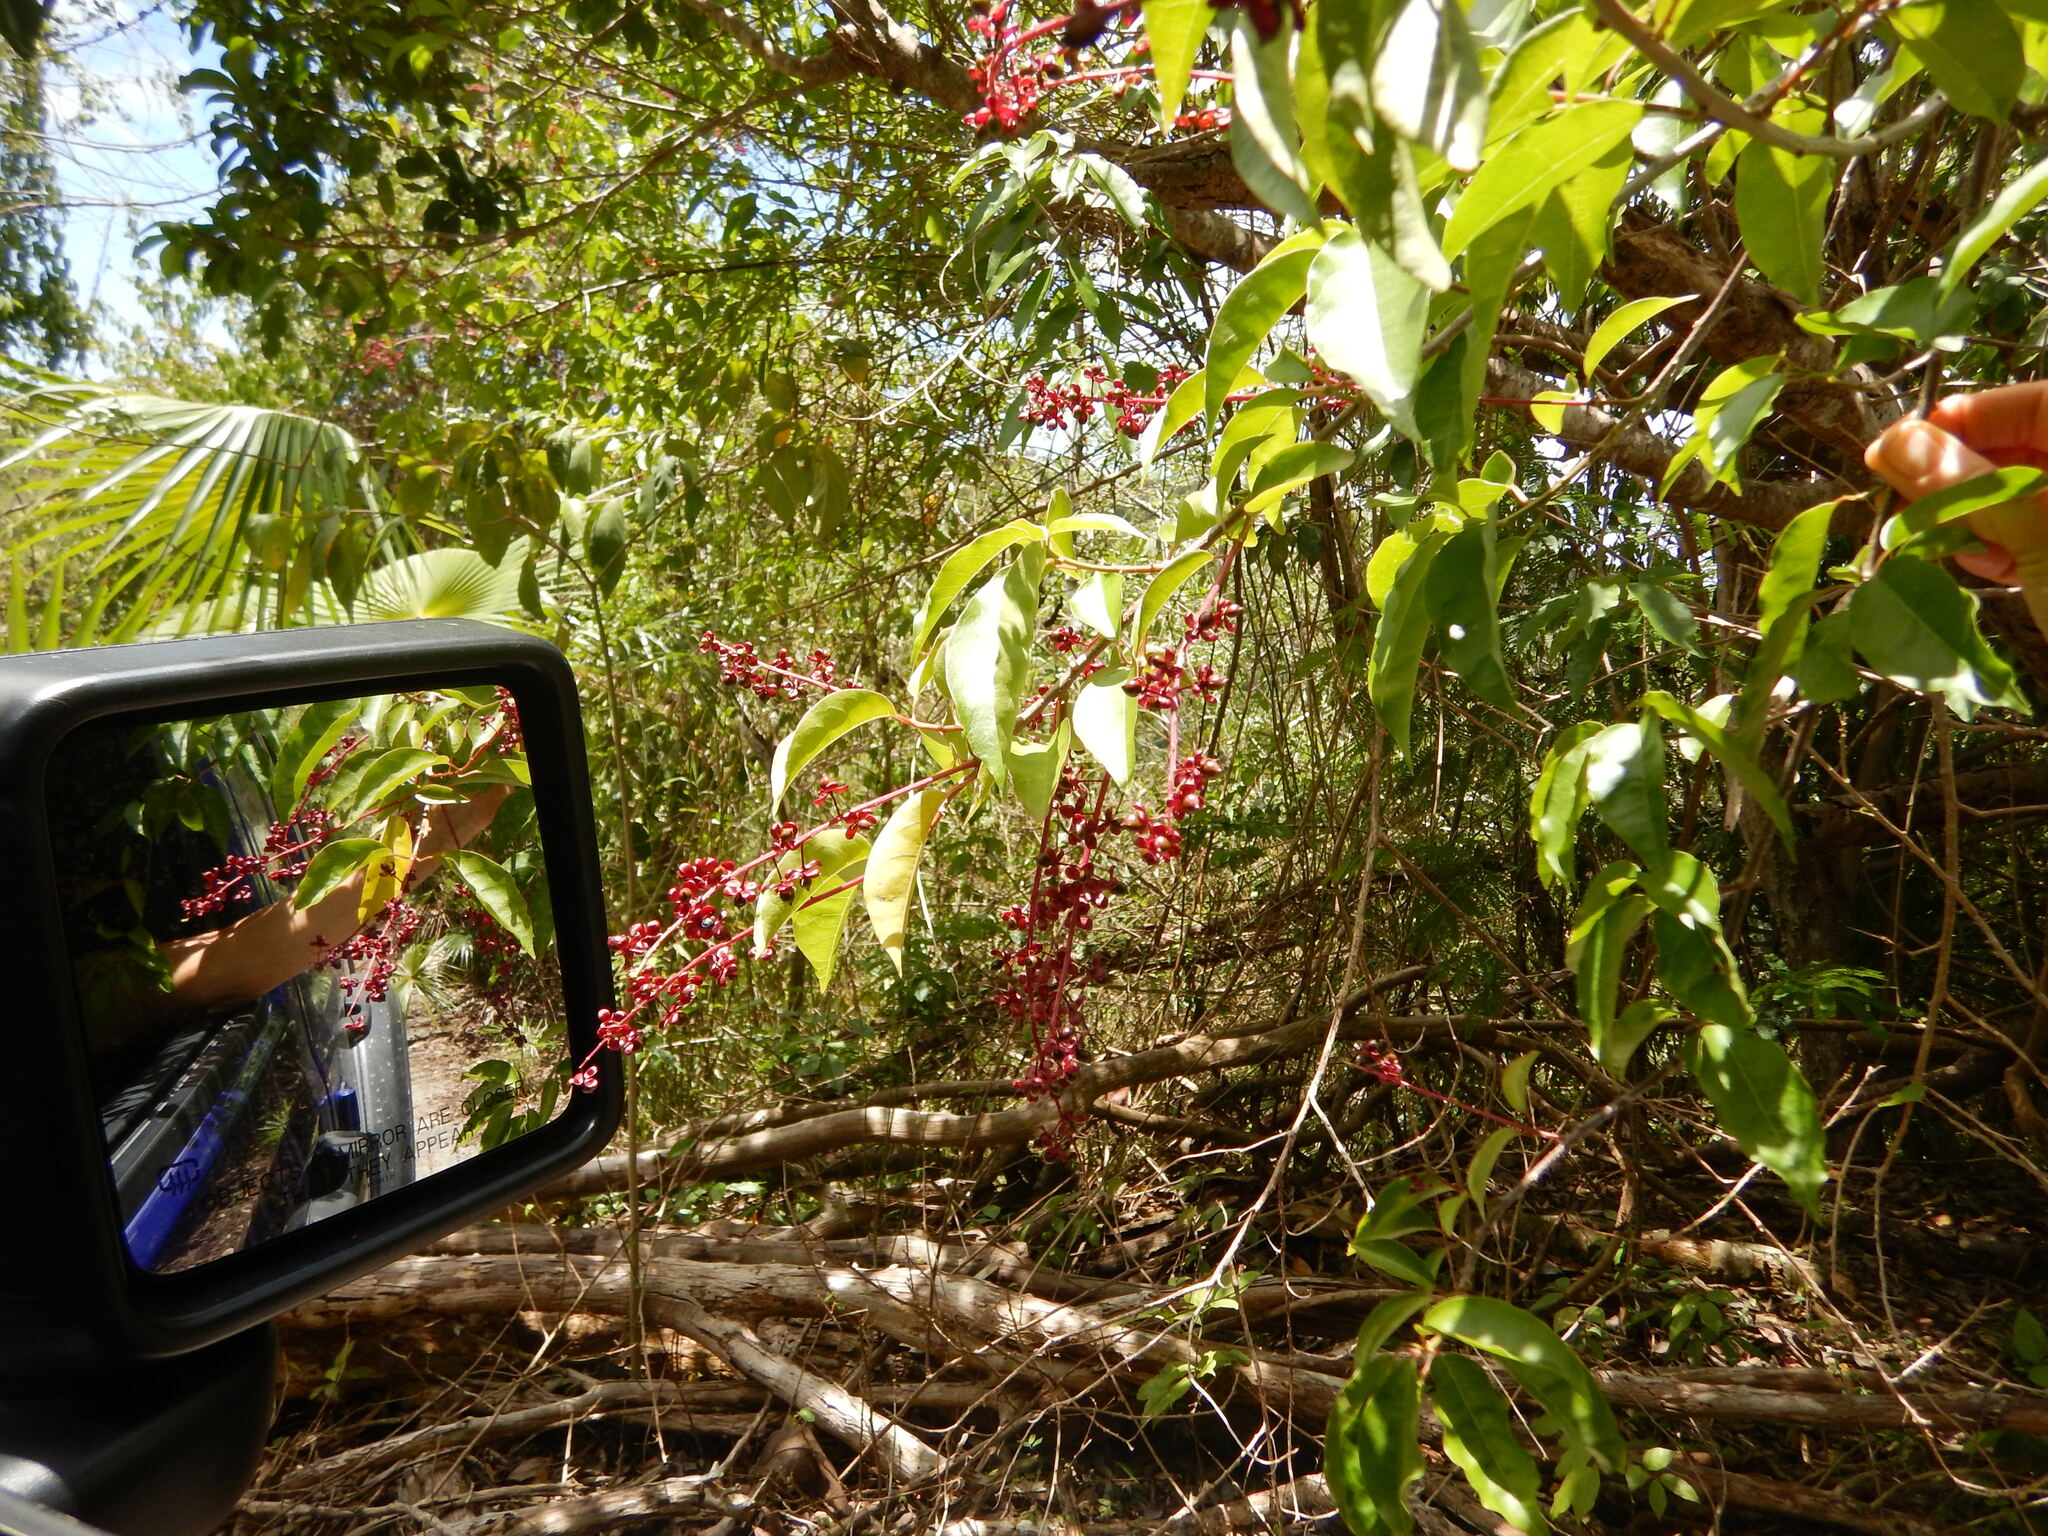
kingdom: Plantae
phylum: Tracheophyta
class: Magnoliopsida
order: Caryophyllales
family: Phytolaccaceae
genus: Trichostigma
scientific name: Trichostigma octandrum
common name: Basket wiss
